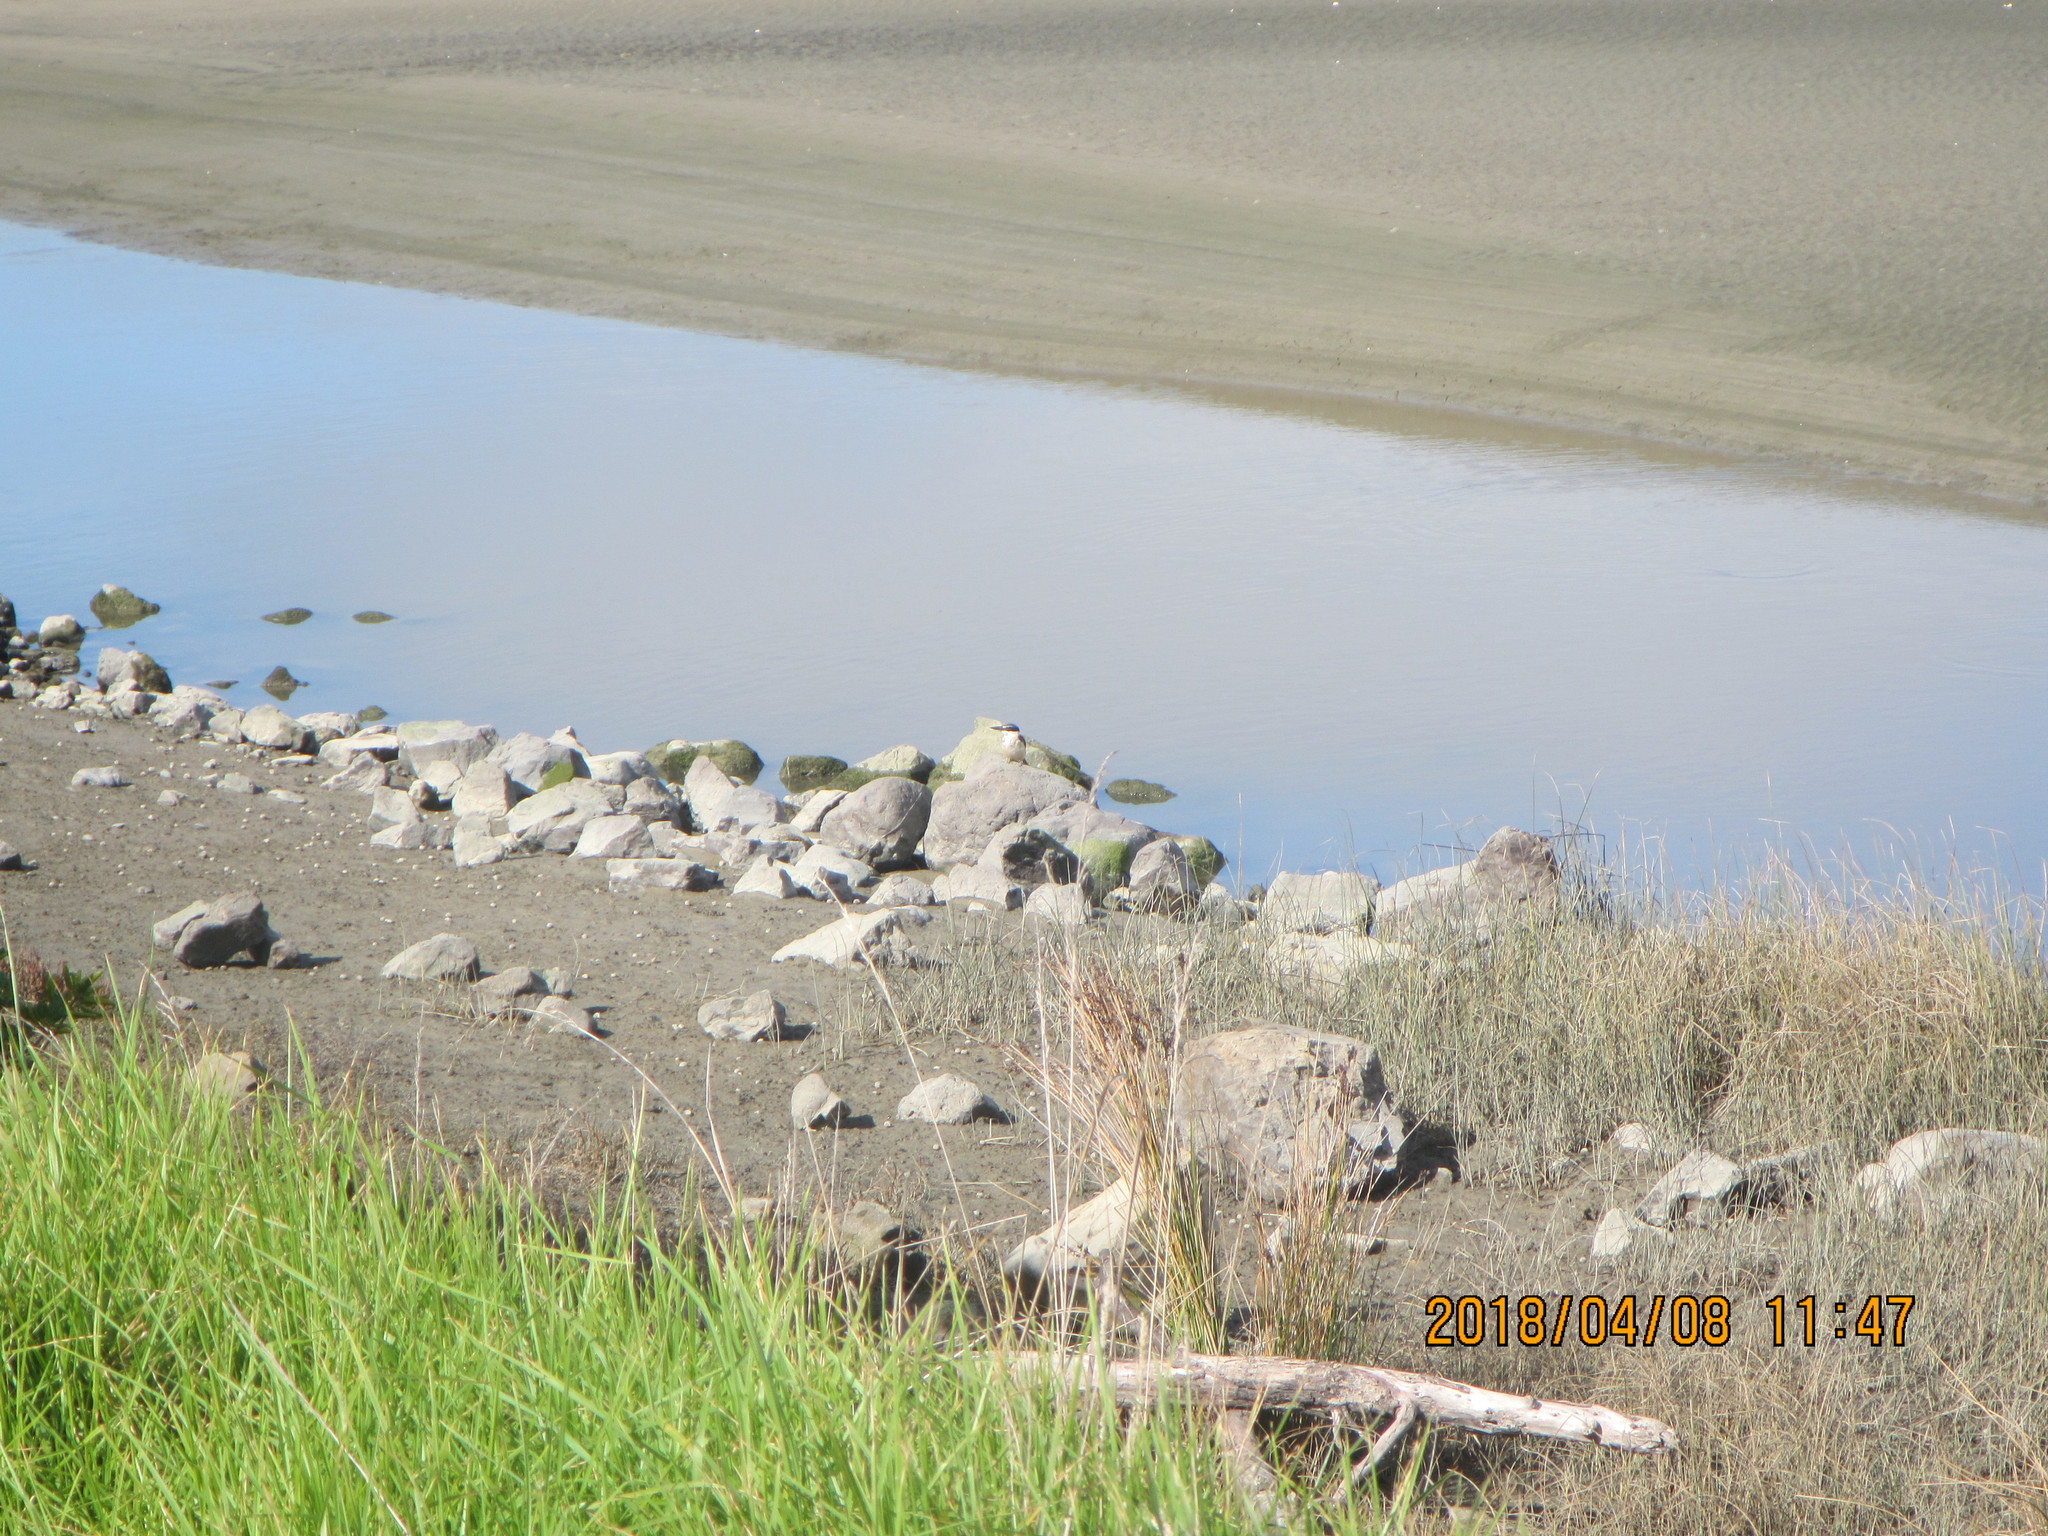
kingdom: Animalia
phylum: Chordata
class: Aves
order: Coraciiformes
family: Alcedinidae
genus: Todiramphus
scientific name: Todiramphus sanctus
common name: Sacred kingfisher
